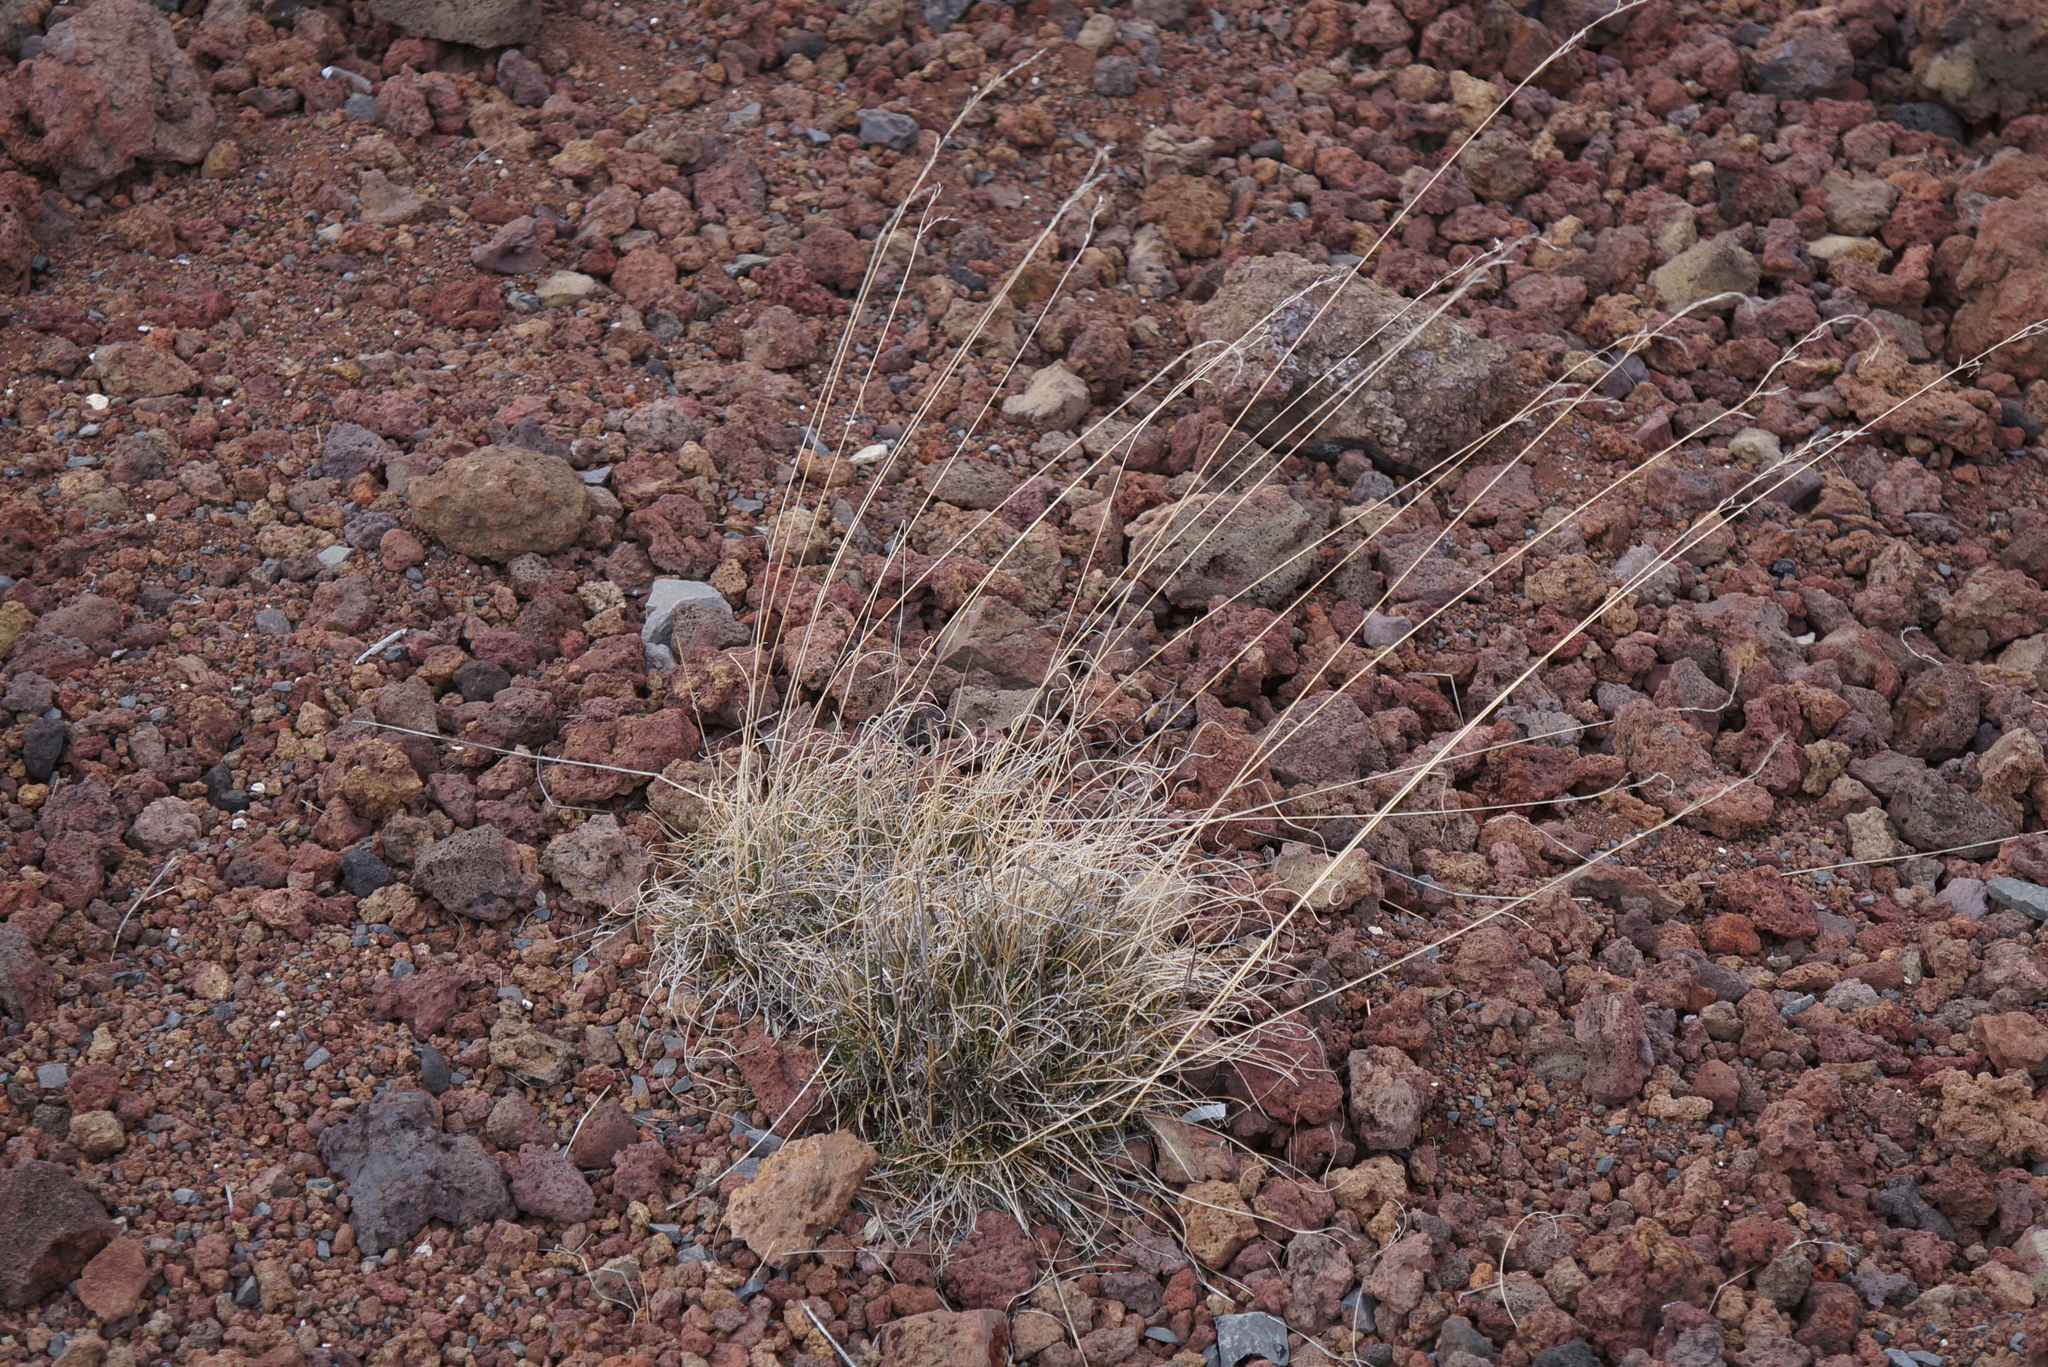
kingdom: Plantae
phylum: Tracheophyta
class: Liliopsida
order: Poales
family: Poaceae
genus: Festuca
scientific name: Festuca rubra
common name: Red fescue
